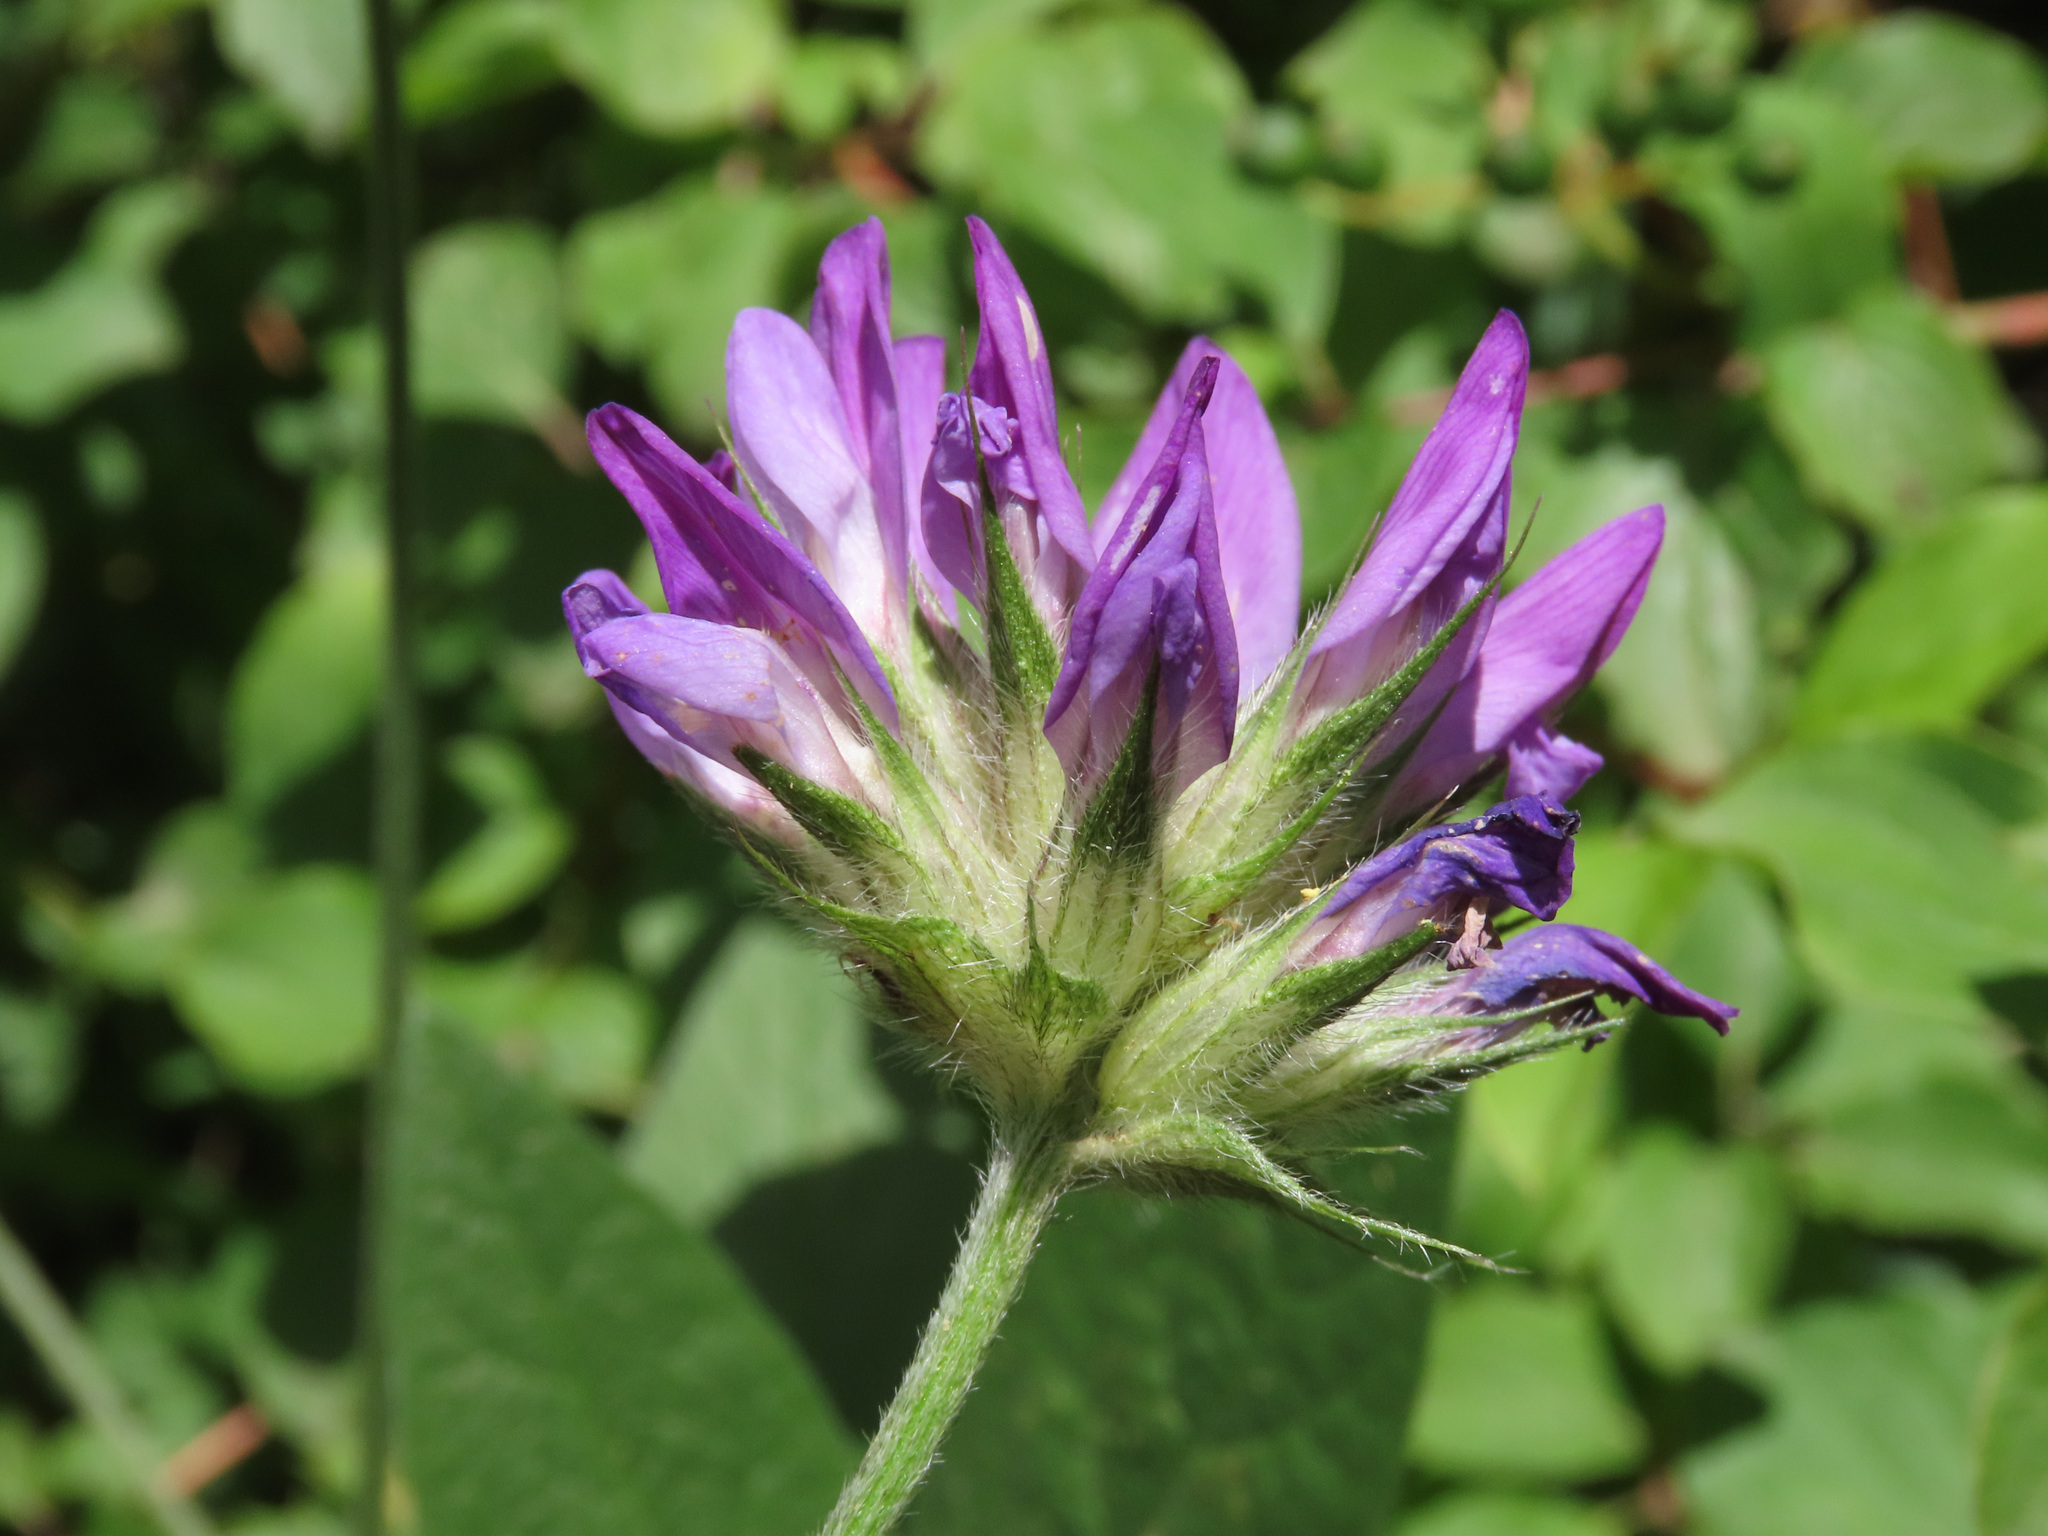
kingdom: Plantae
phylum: Tracheophyta
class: Magnoliopsida
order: Fabales
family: Fabaceae
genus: Bituminaria
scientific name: Bituminaria bituminosa
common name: Arabian pea
